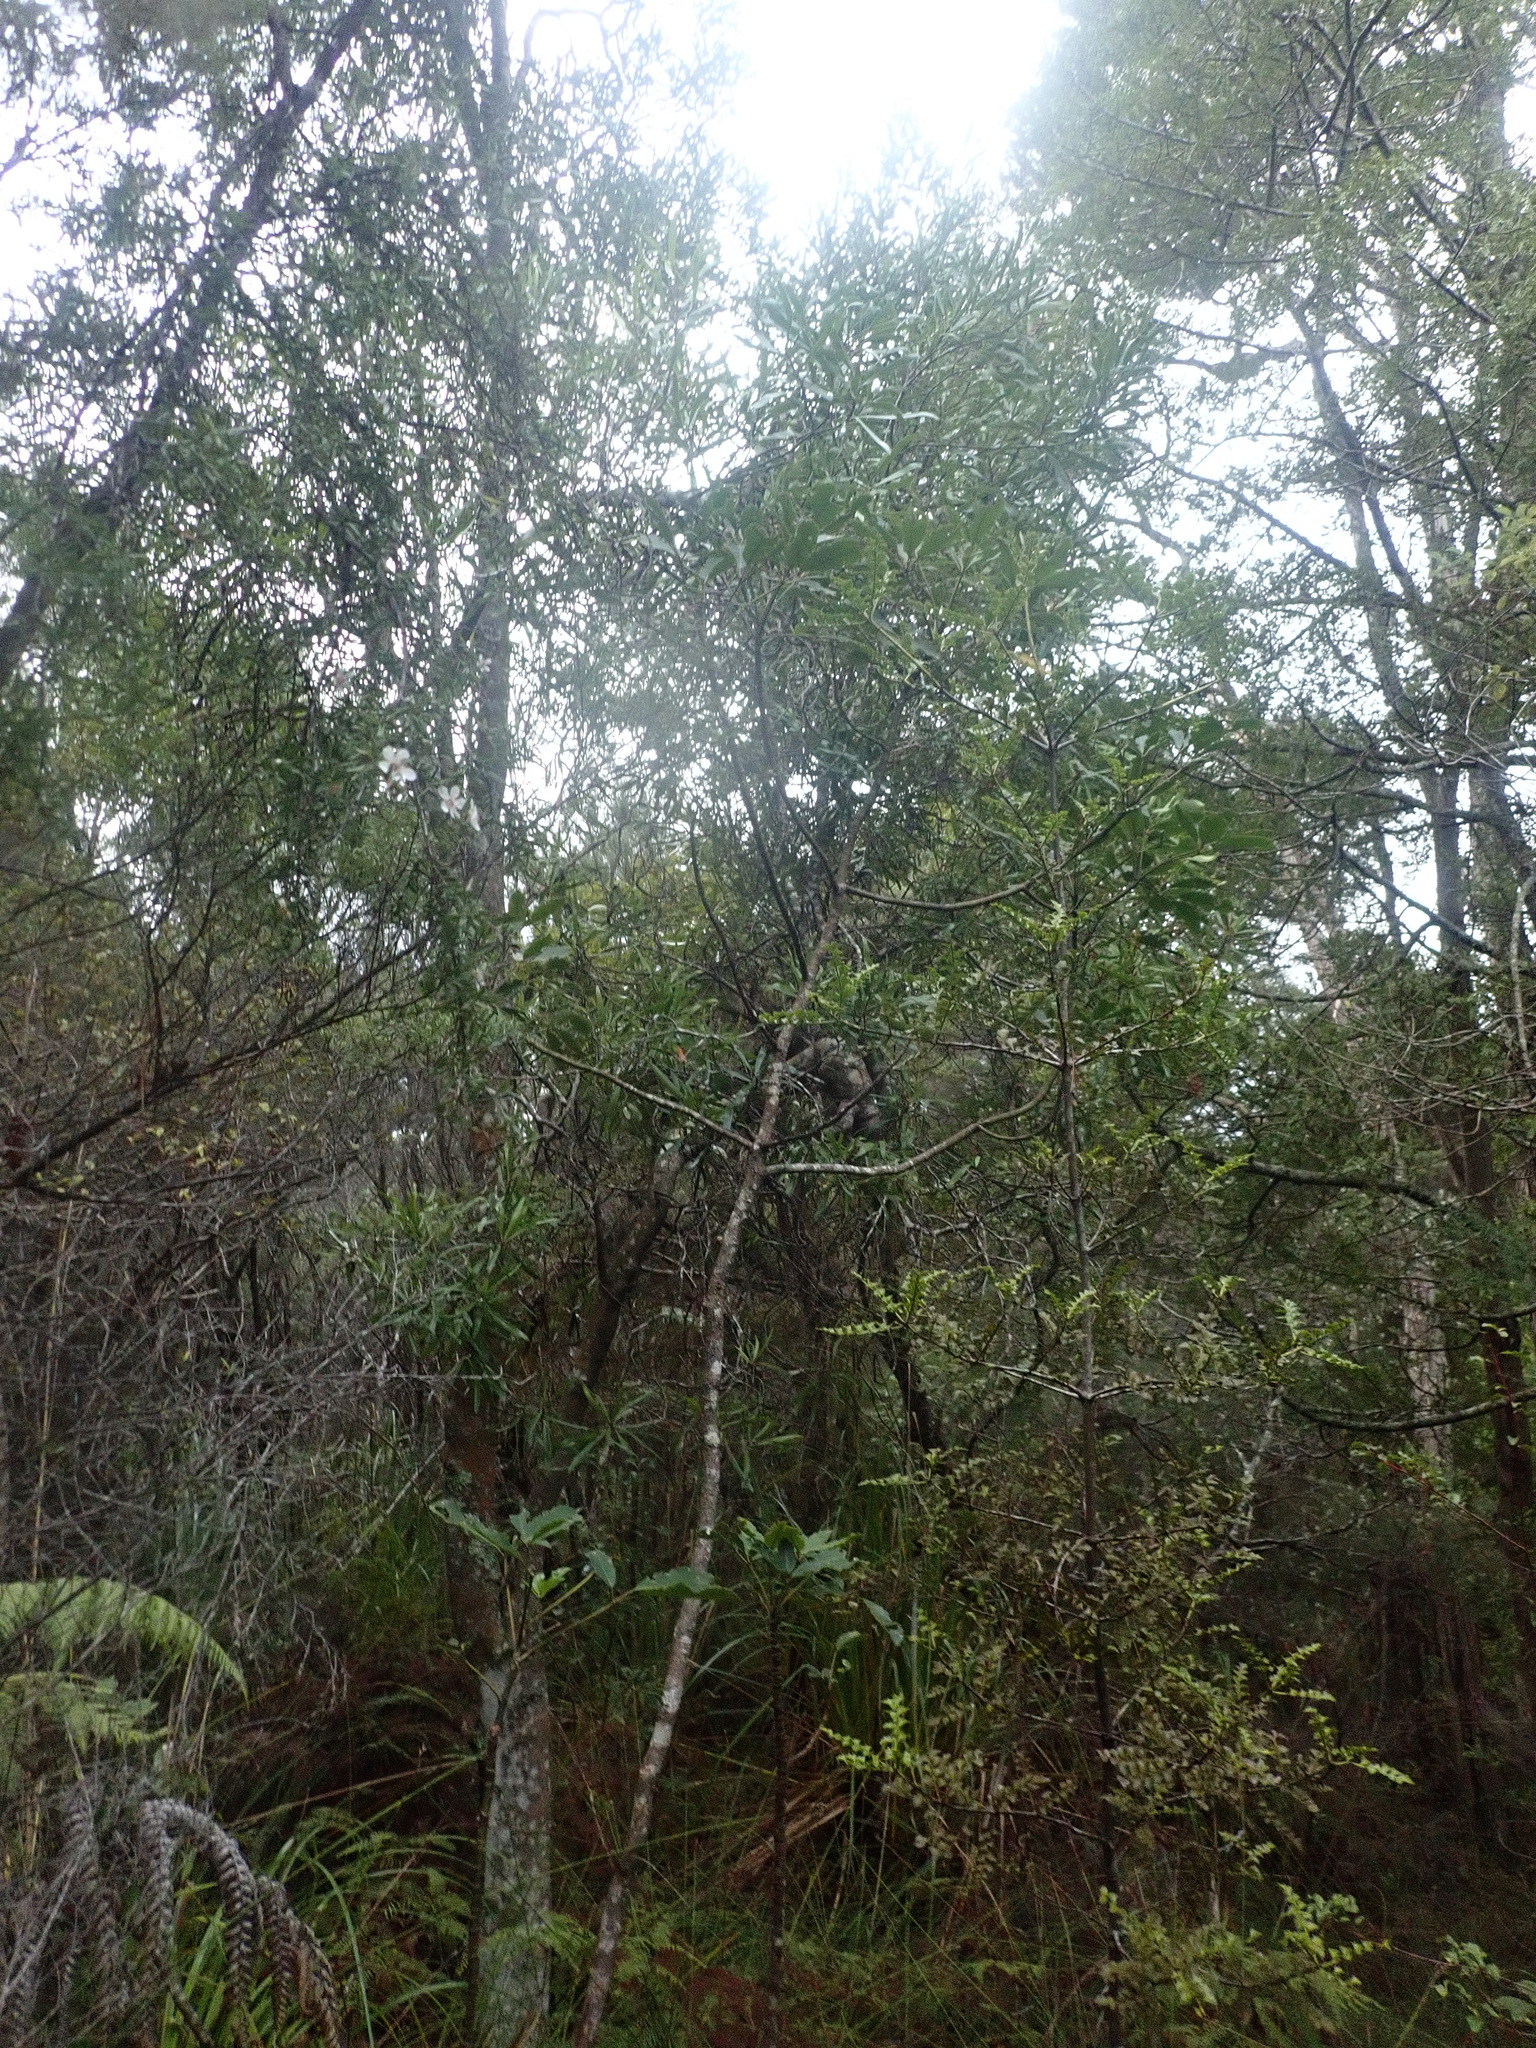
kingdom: Plantae
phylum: Tracheophyta
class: Pinopsida
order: Pinales
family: Phyllocladaceae
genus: Phyllocladus
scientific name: Phyllocladus trichomanoides
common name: Celery pine
